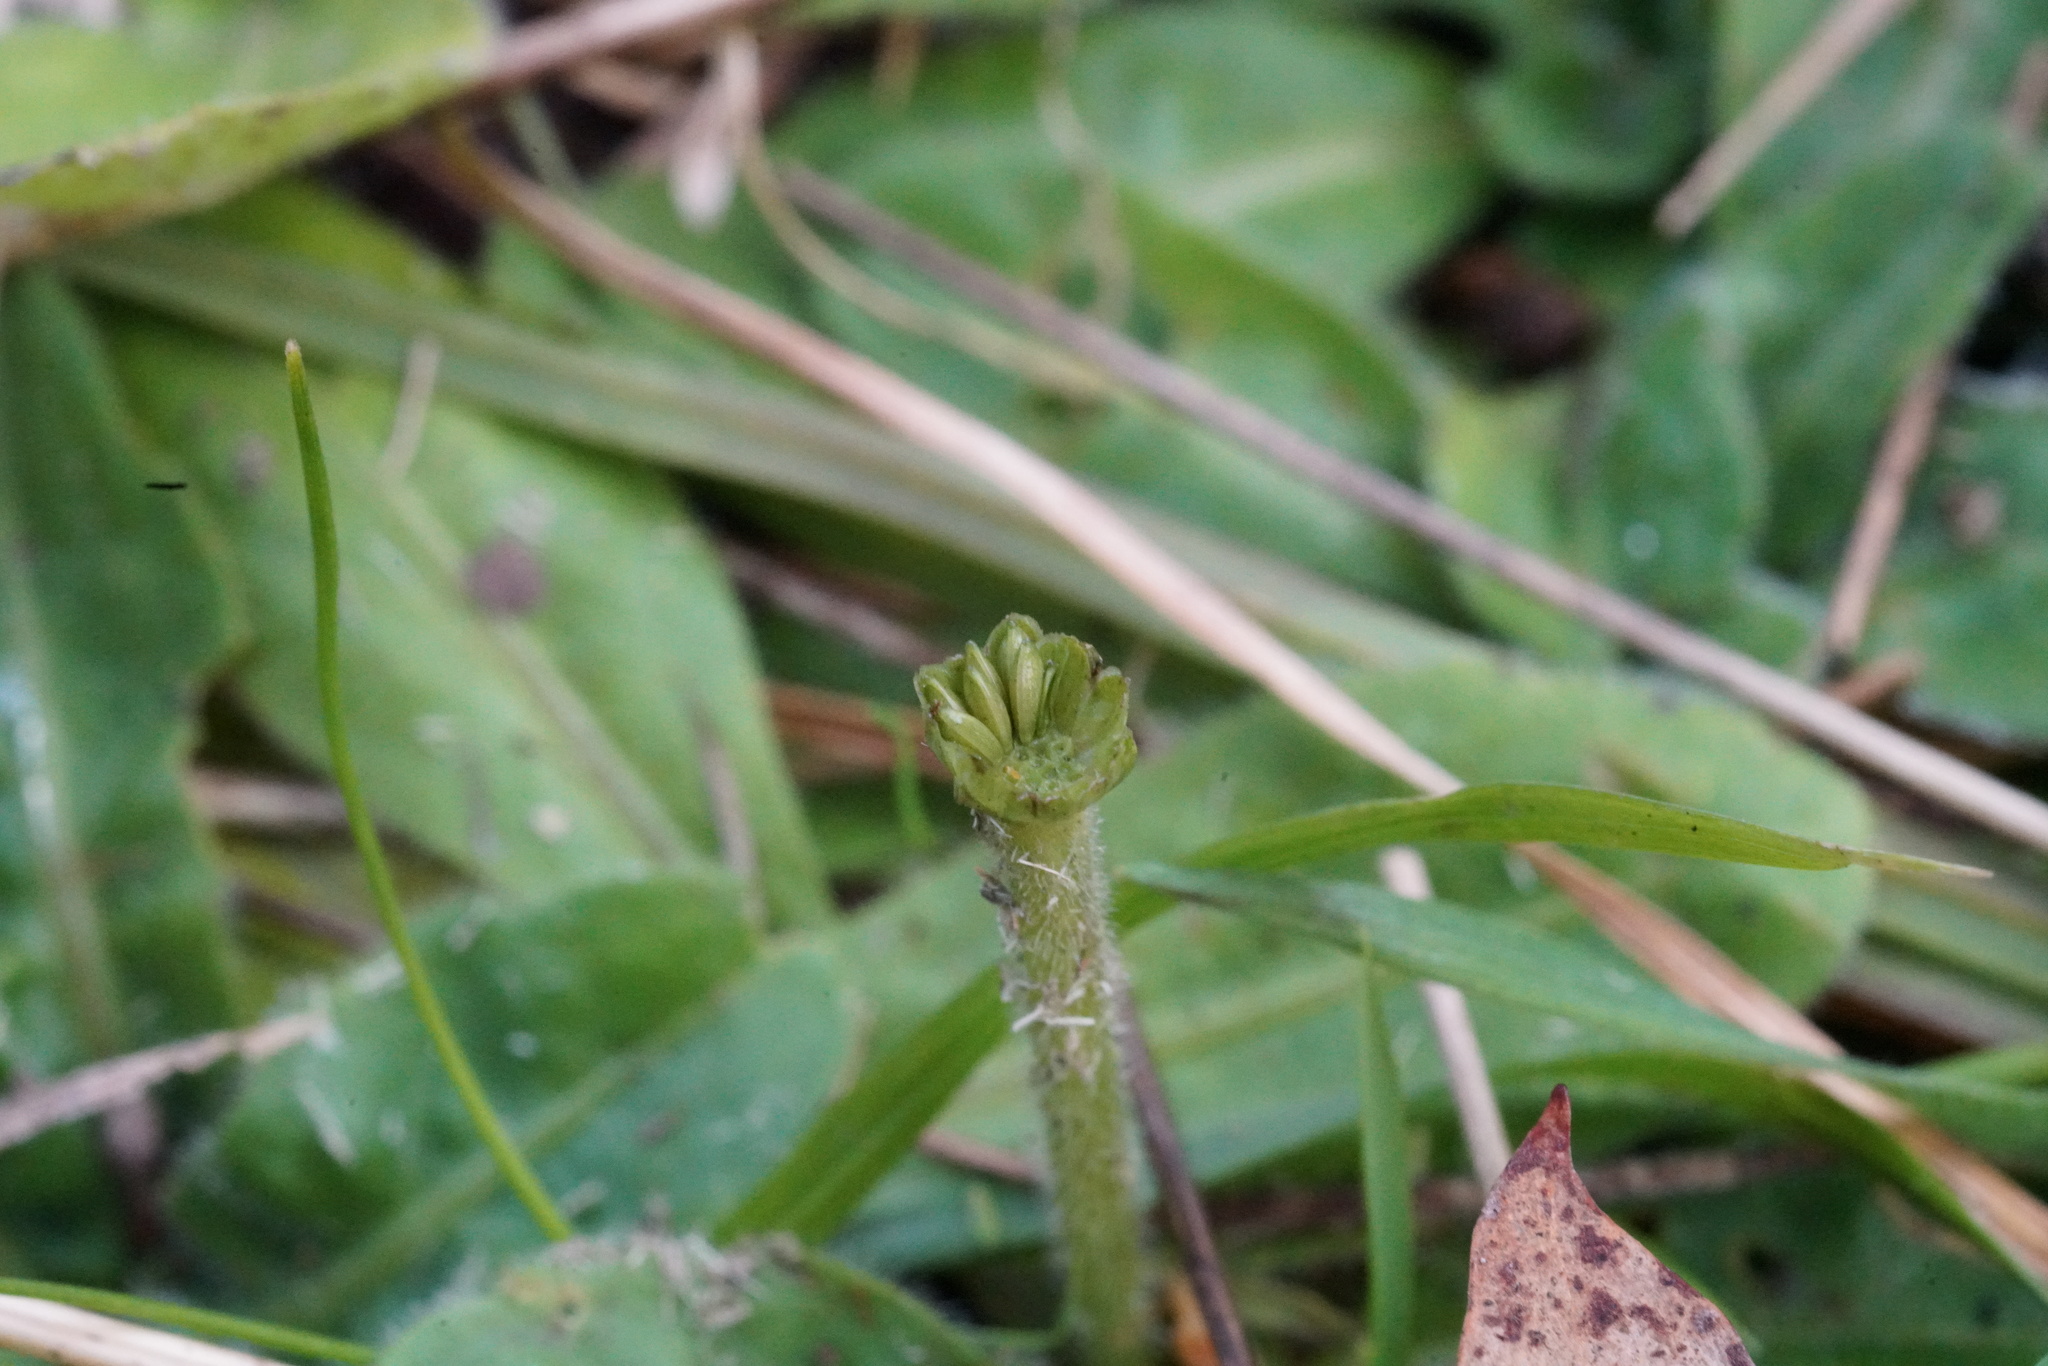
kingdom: Plantae
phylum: Tracheophyta
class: Magnoliopsida
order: Asterales
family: Asteraceae
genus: Solenogyne
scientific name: Solenogyne gunnii
